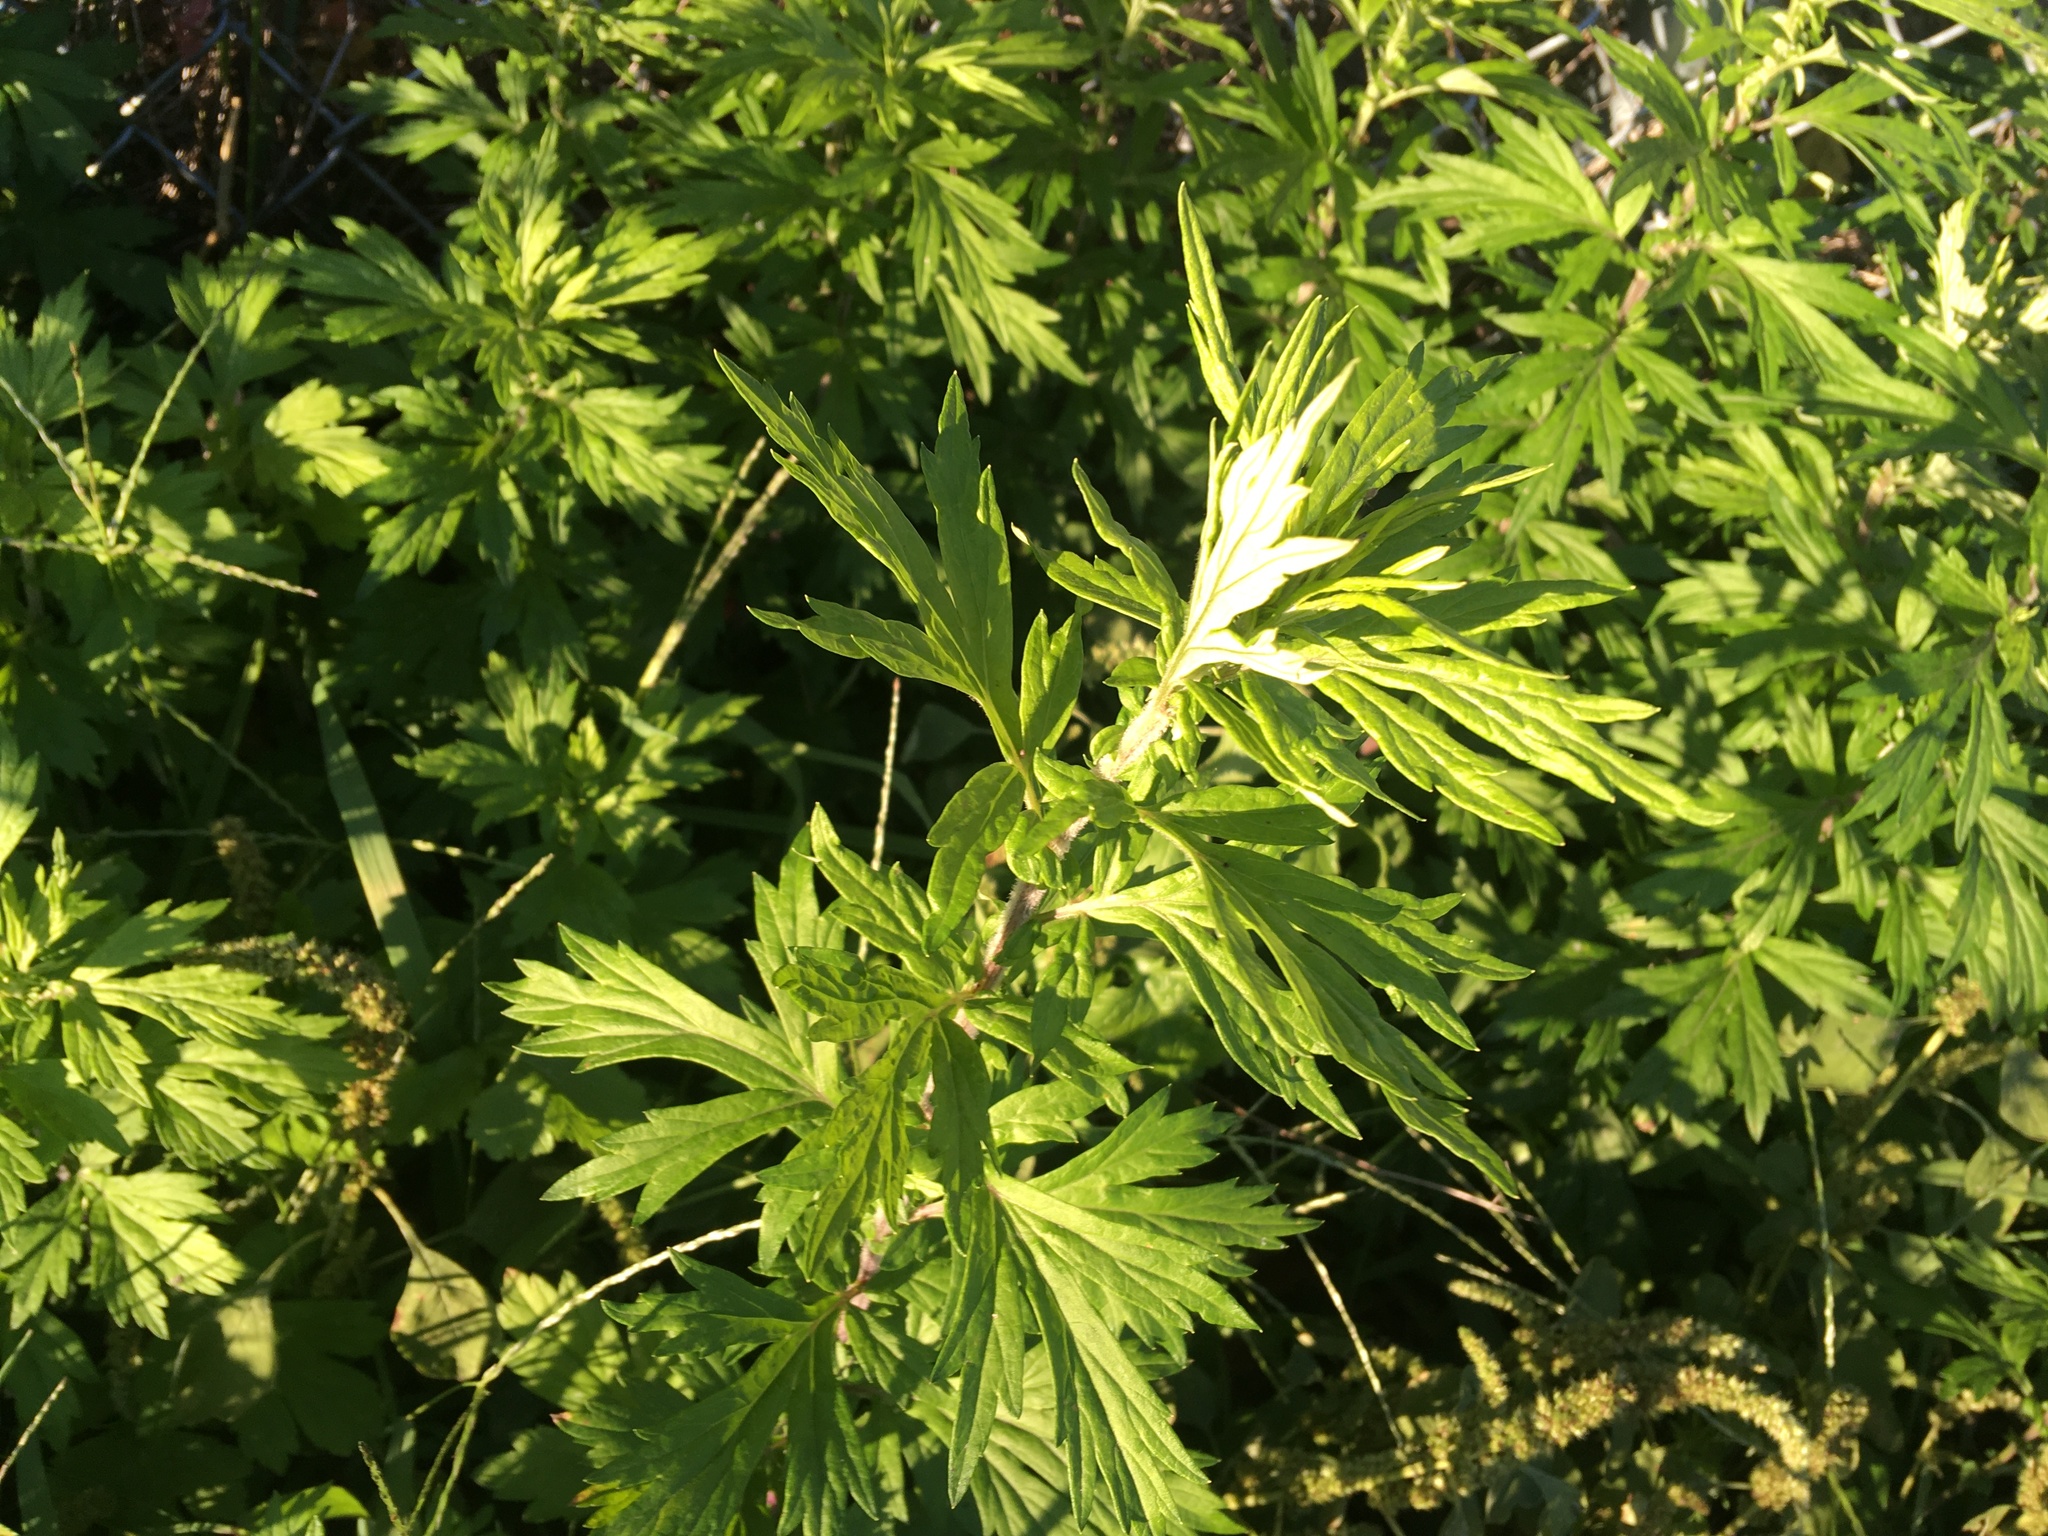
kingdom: Plantae
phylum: Tracheophyta
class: Magnoliopsida
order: Asterales
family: Asteraceae
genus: Artemisia
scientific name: Artemisia vulgaris
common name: Mugwort
